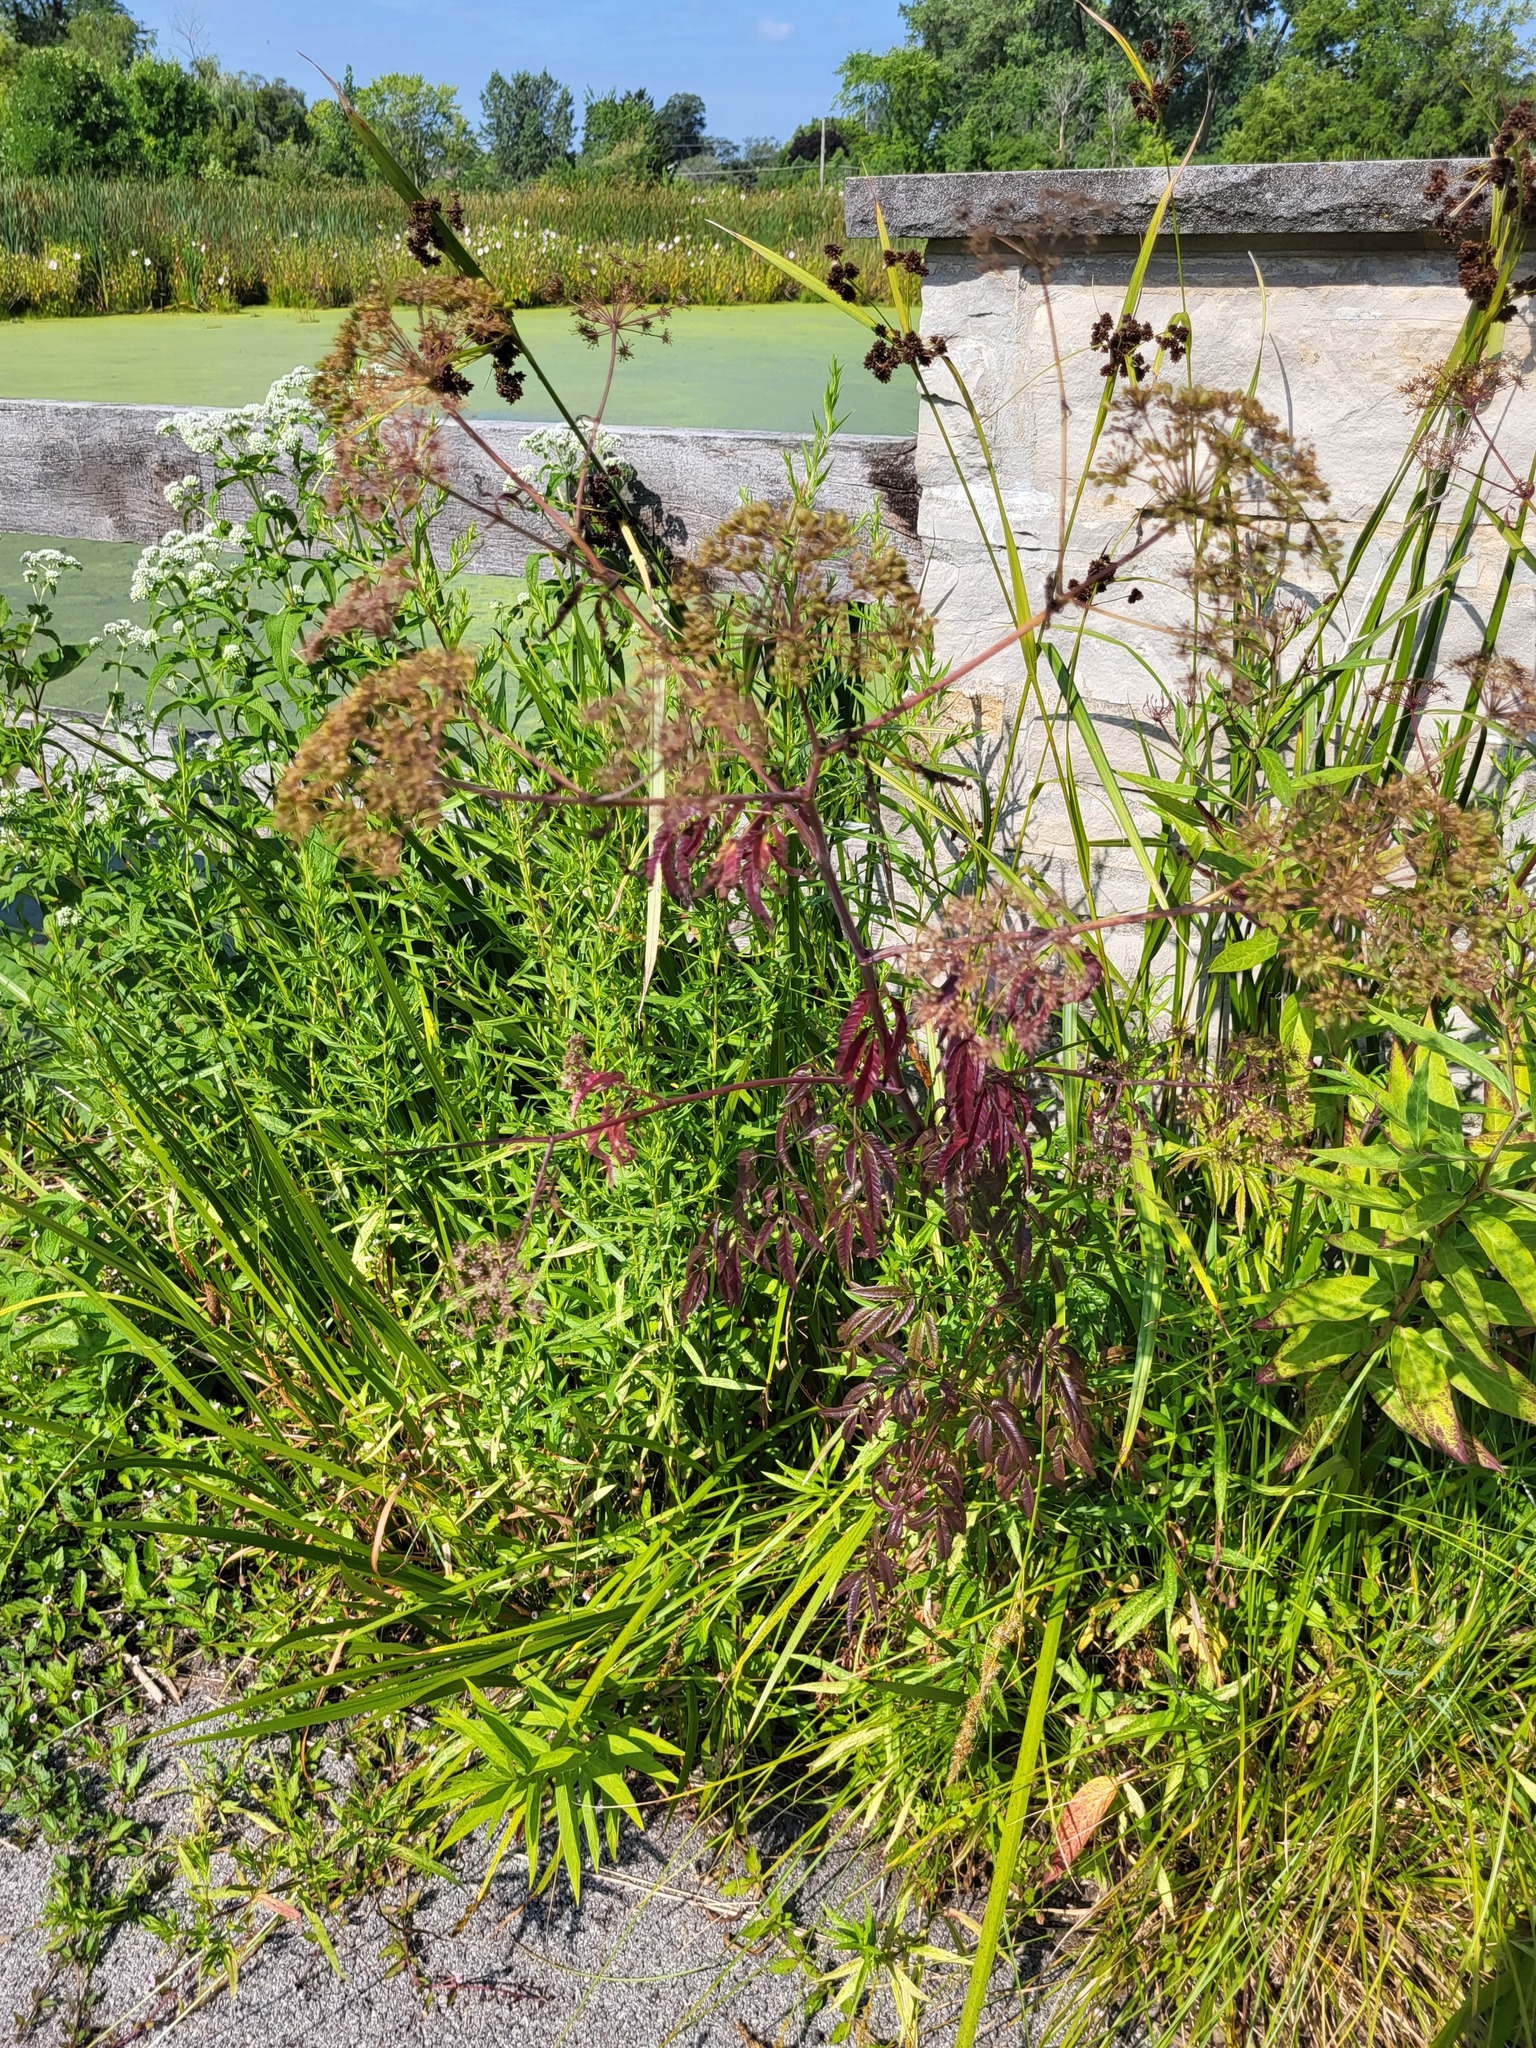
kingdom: Plantae
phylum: Tracheophyta
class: Magnoliopsida
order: Apiales
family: Apiaceae
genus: Cicuta
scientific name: Cicuta maculata
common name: Spotted cowbane
